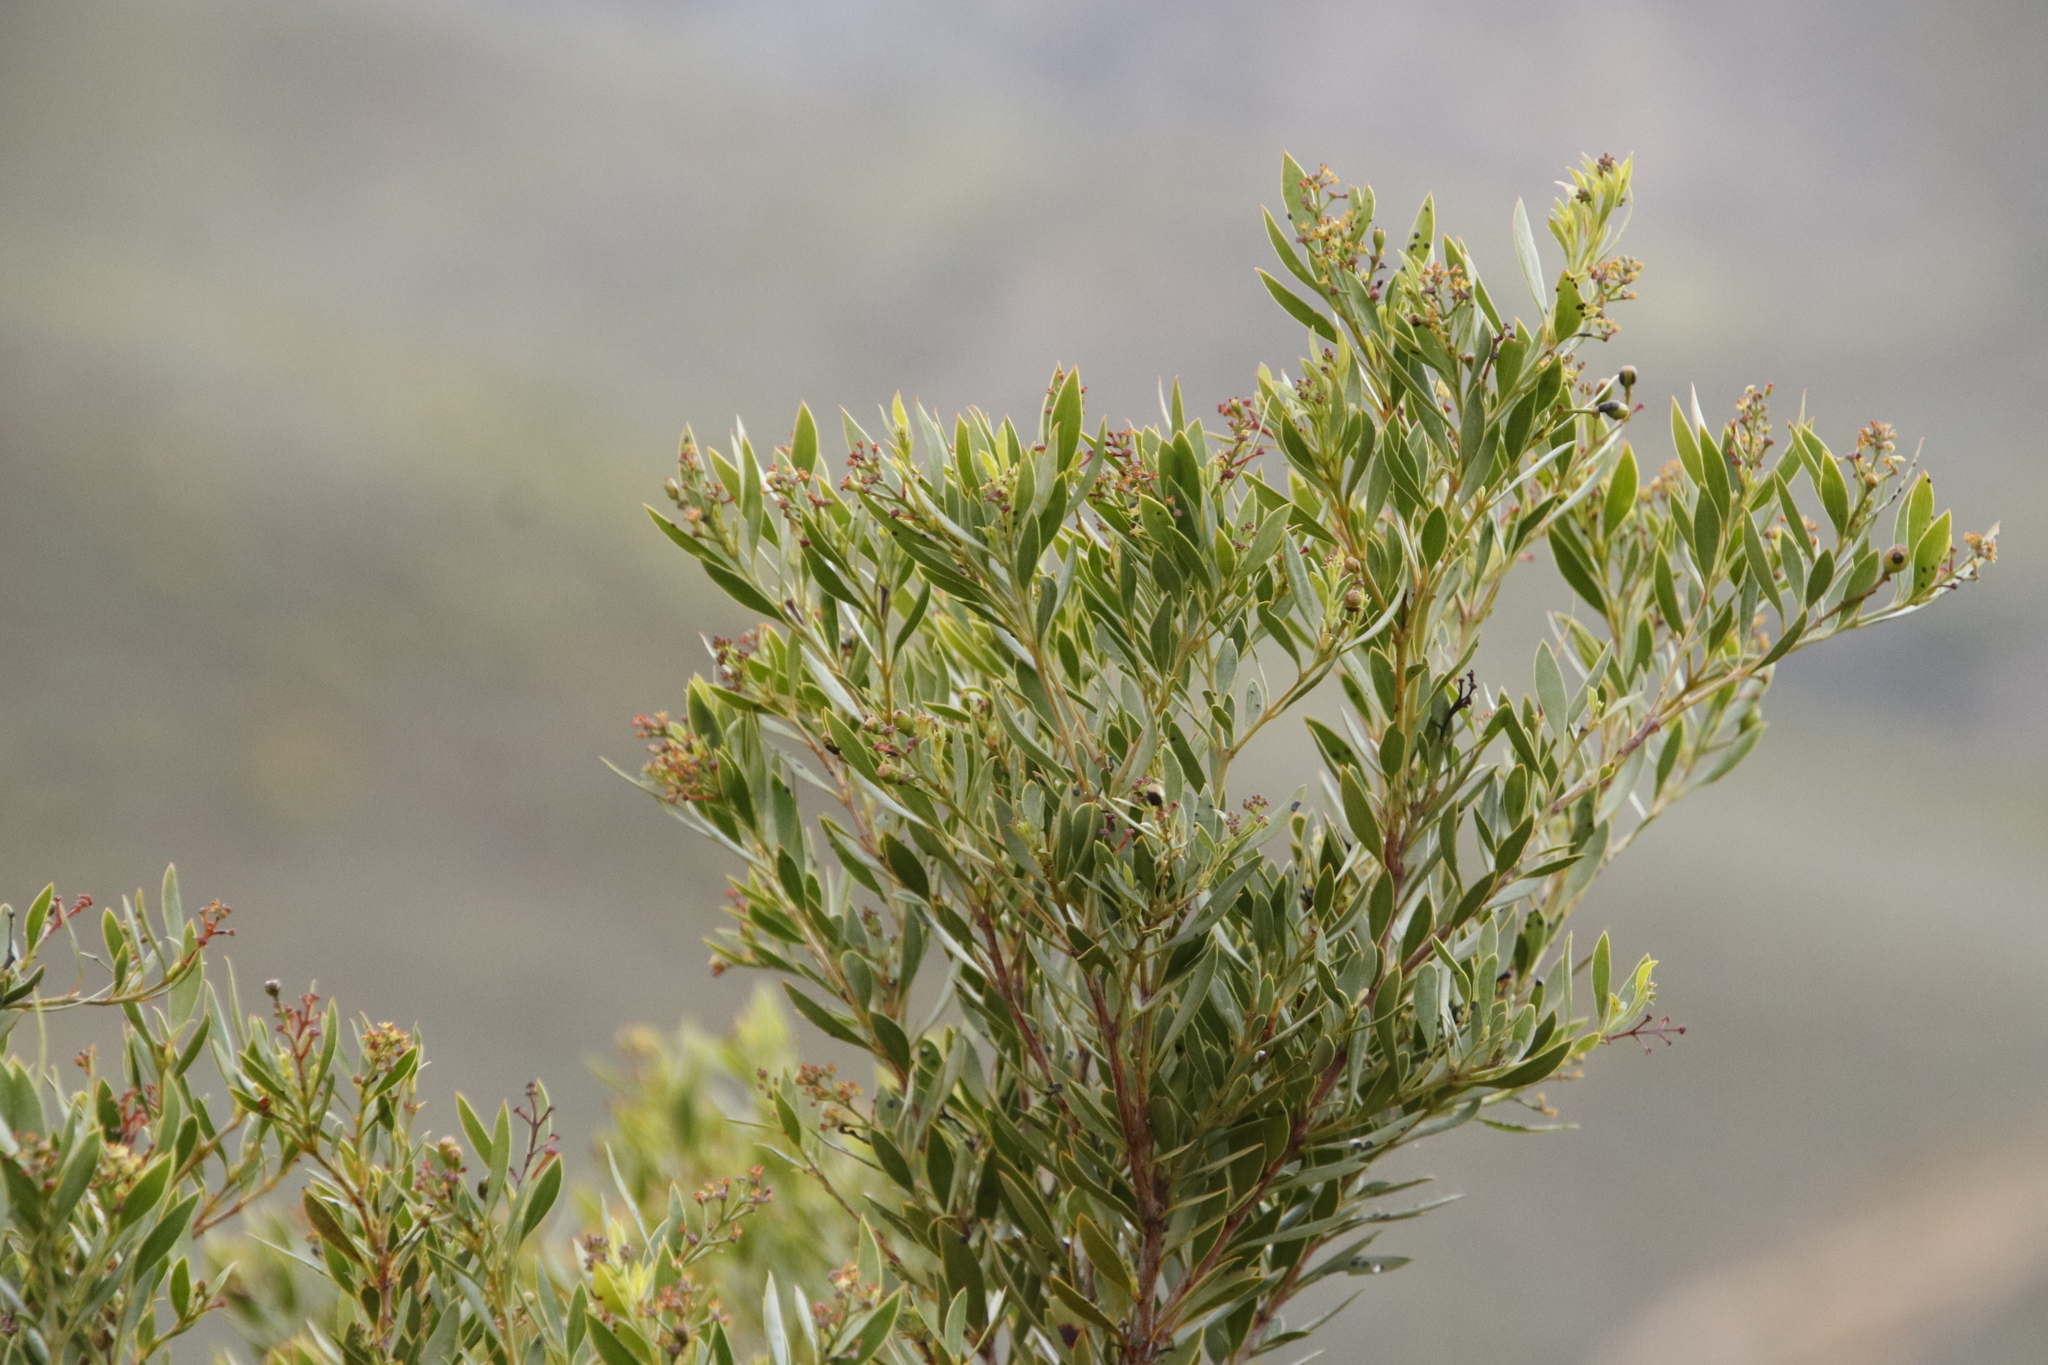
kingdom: Plantae
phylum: Tracheophyta
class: Magnoliopsida
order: Lamiales
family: Oleaceae
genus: Olea
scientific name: Olea europaea
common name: Olive
